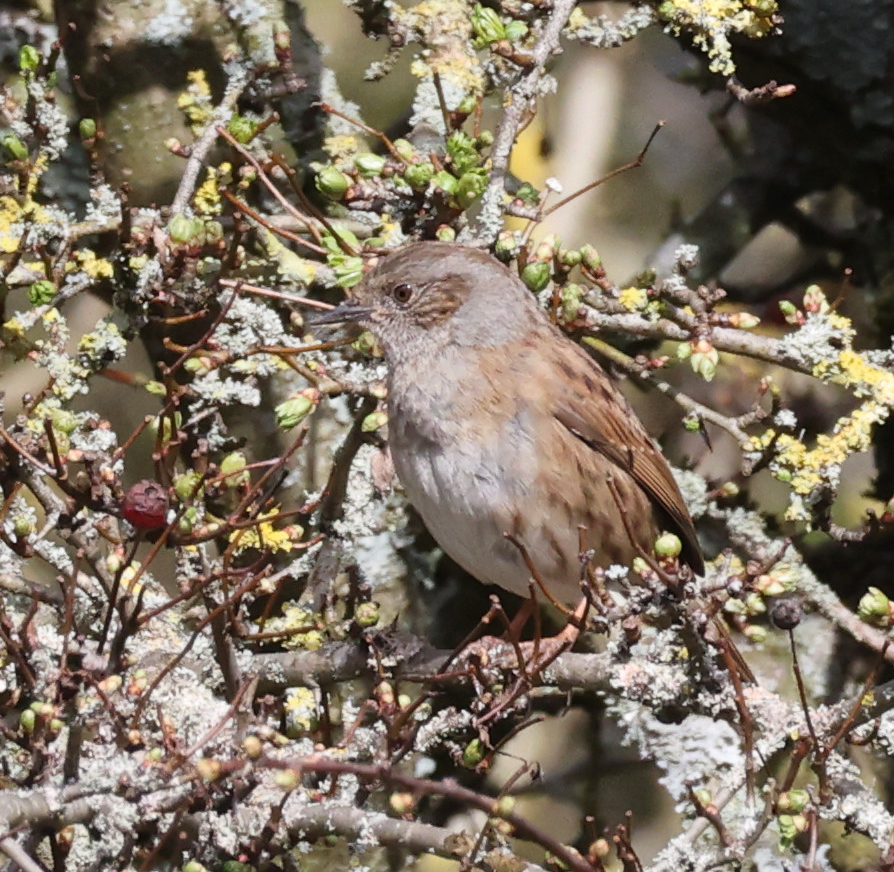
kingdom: Animalia
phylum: Chordata
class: Aves
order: Passeriformes
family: Prunellidae
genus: Prunella
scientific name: Prunella modularis
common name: Dunnock
